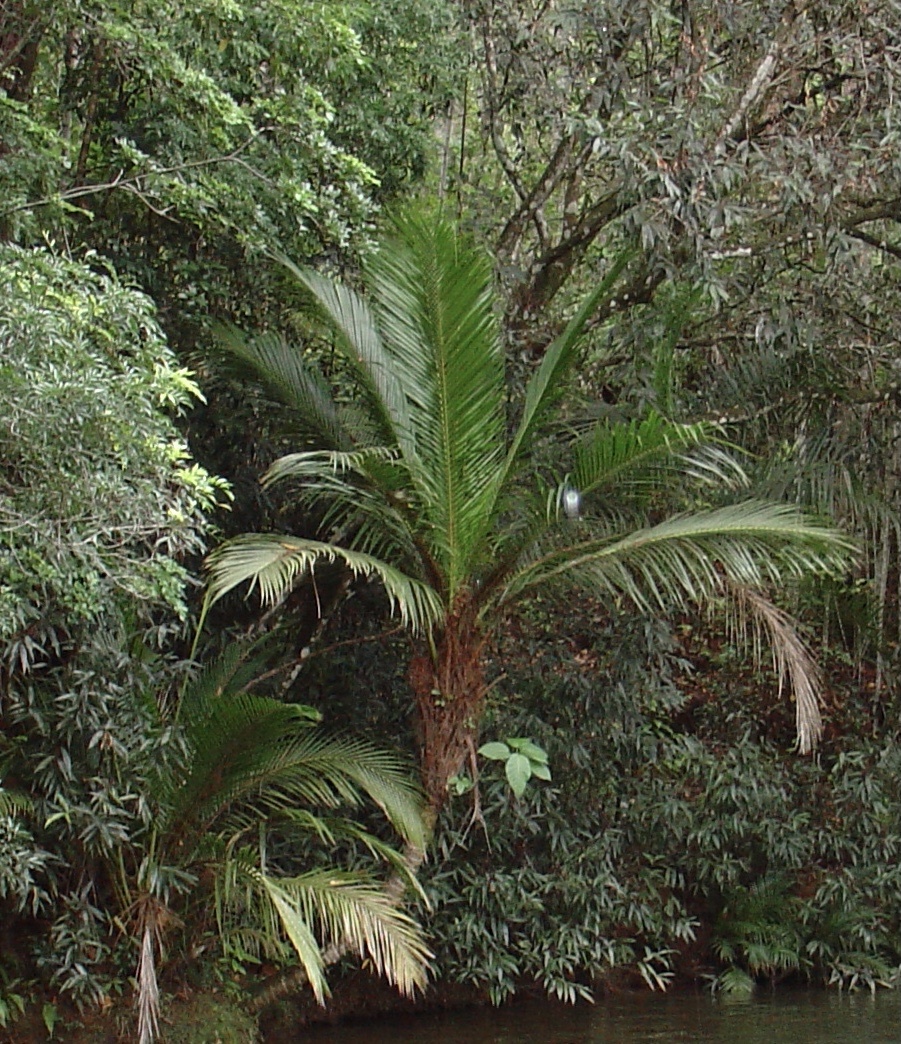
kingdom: Plantae
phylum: Tracheophyta
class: Liliopsida
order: Arecales
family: Arecaceae
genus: Calyptronoma
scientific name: Calyptronoma plumeriana
